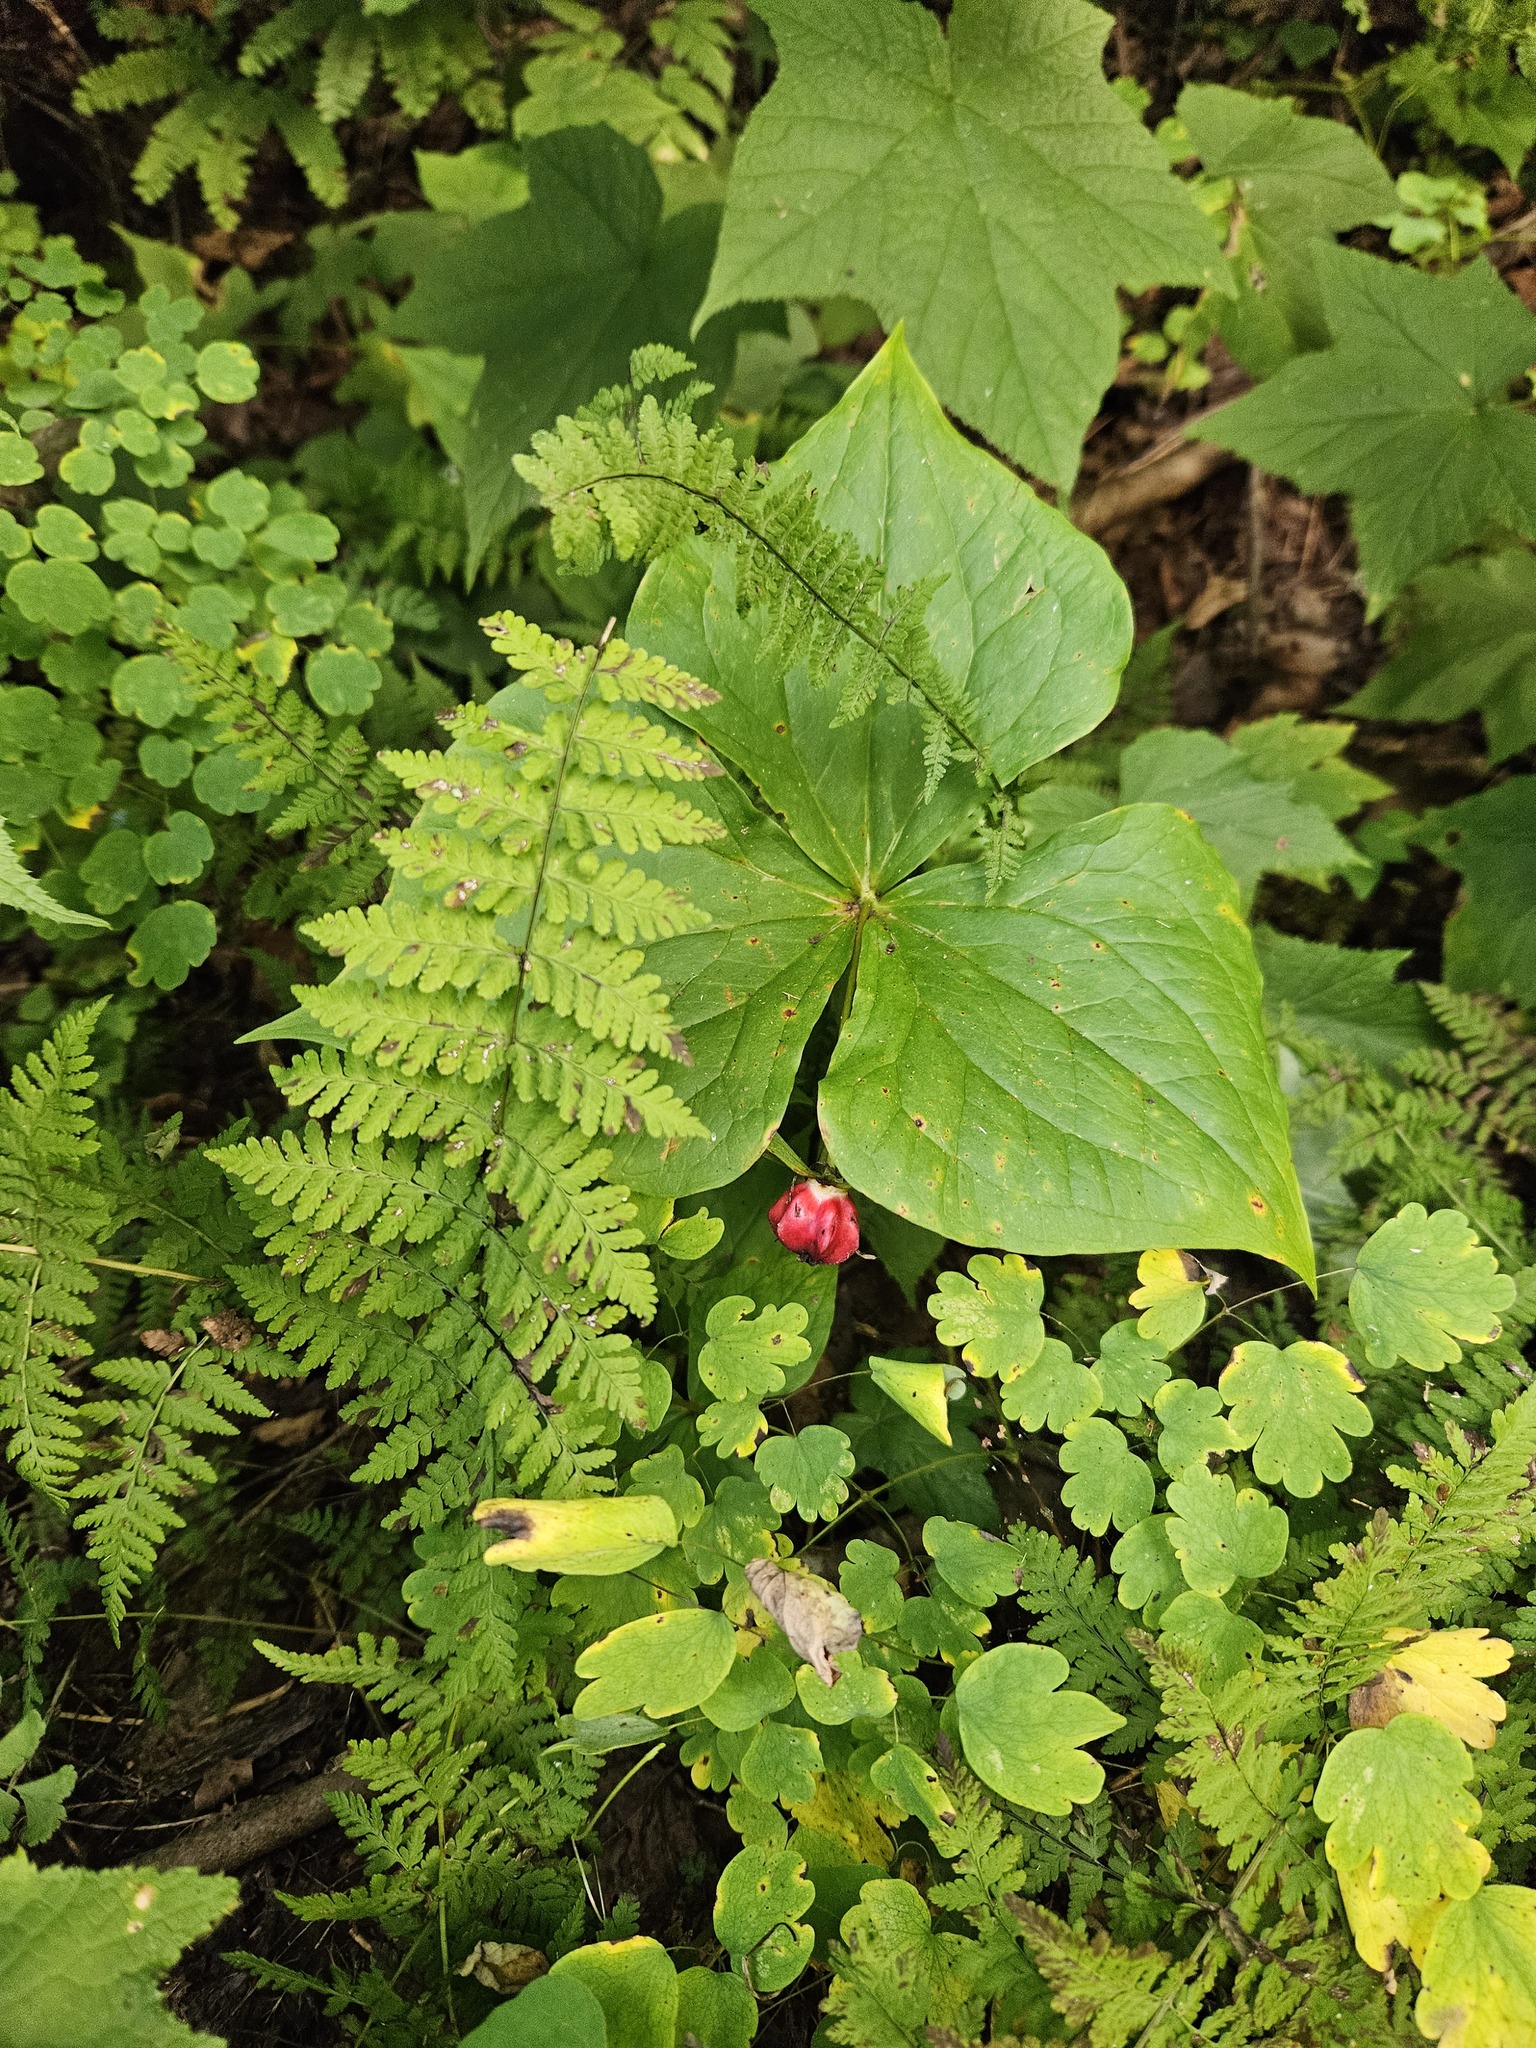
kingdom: Plantae
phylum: Tracheophyta
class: Liliopsida
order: Liliales
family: Melanthiaceae
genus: Trillium
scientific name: Trillium erectum
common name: Purple trillium
